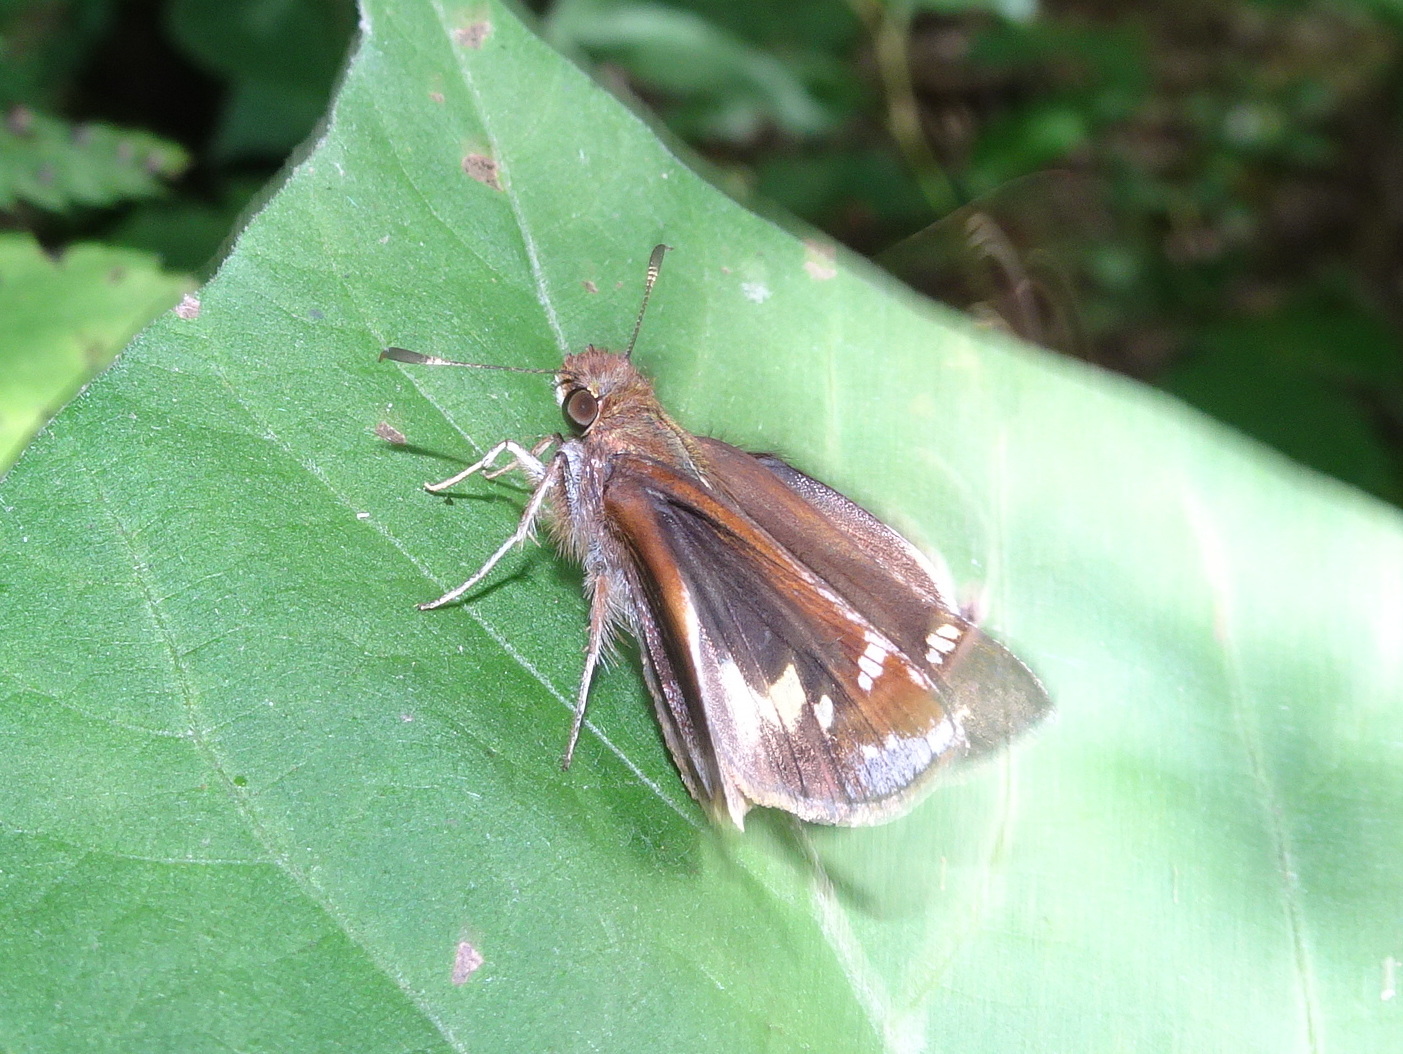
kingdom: Animalia
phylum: Arthropoda
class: Insecta
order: Lepidoptera
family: Hesperiidae
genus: Lon
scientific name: Lon zabulon
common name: Zabulon skipper
